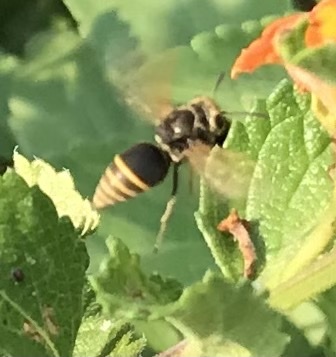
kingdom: Animalia
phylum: Arthropoda
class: Insecta
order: Hymenoptera
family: Vespidae
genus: Brachygastra
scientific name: Brachygastra mellifica
